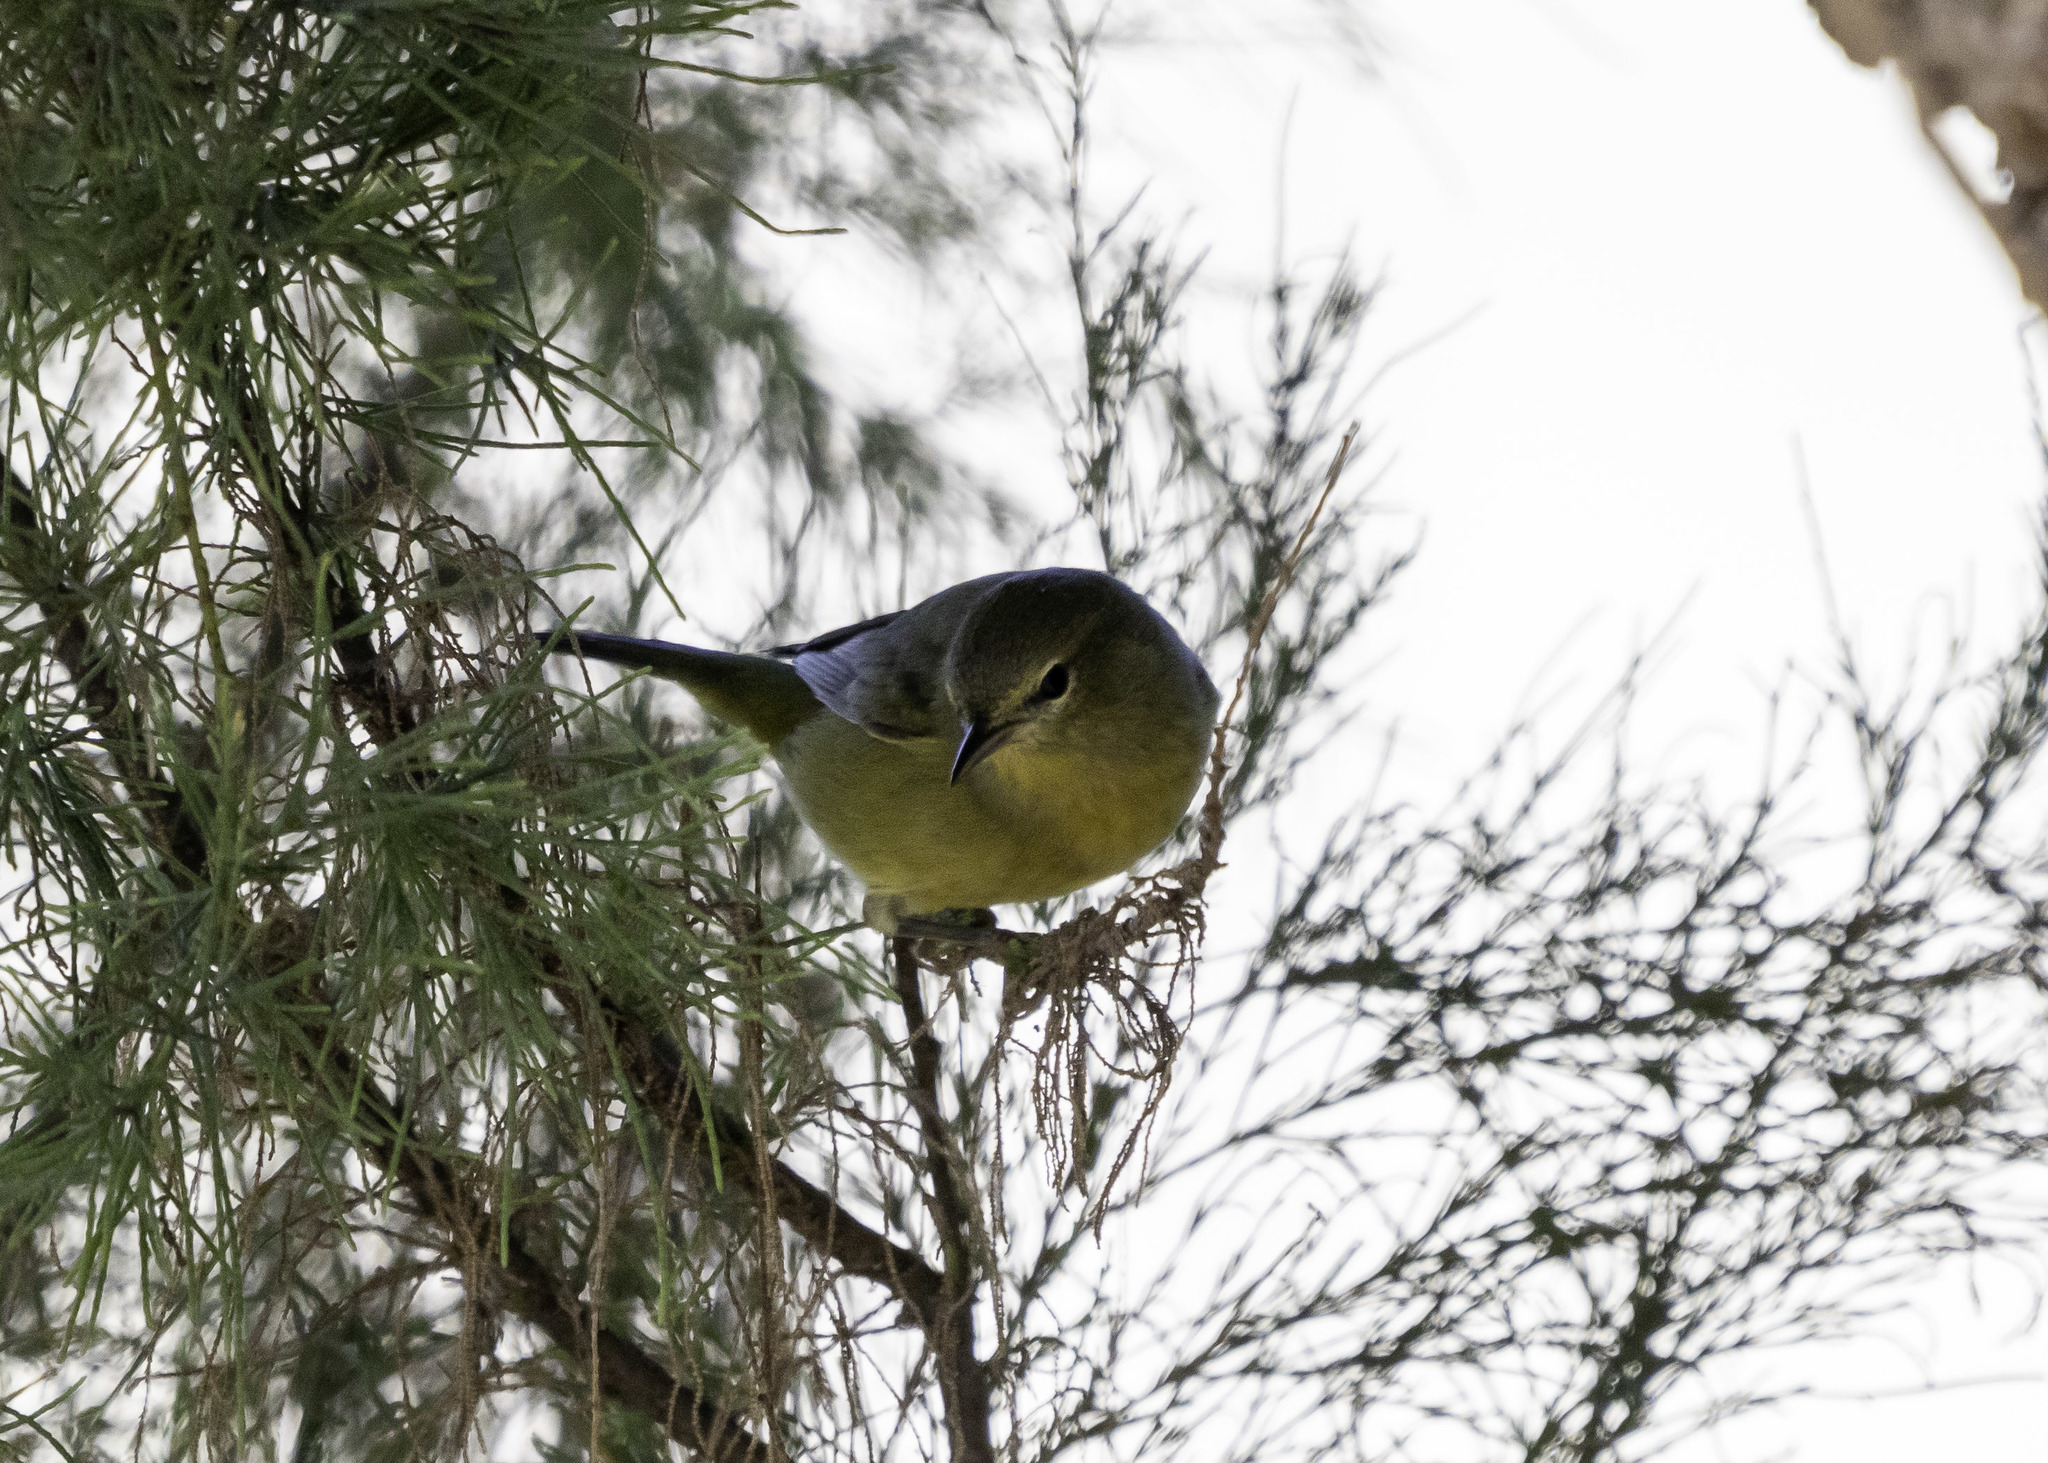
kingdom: Animalia
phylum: Chordata
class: Aves
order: Passeriformes
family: Parulidae
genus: Leiothlypis
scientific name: Leiothlypis celata
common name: Orange-crowned warbler
